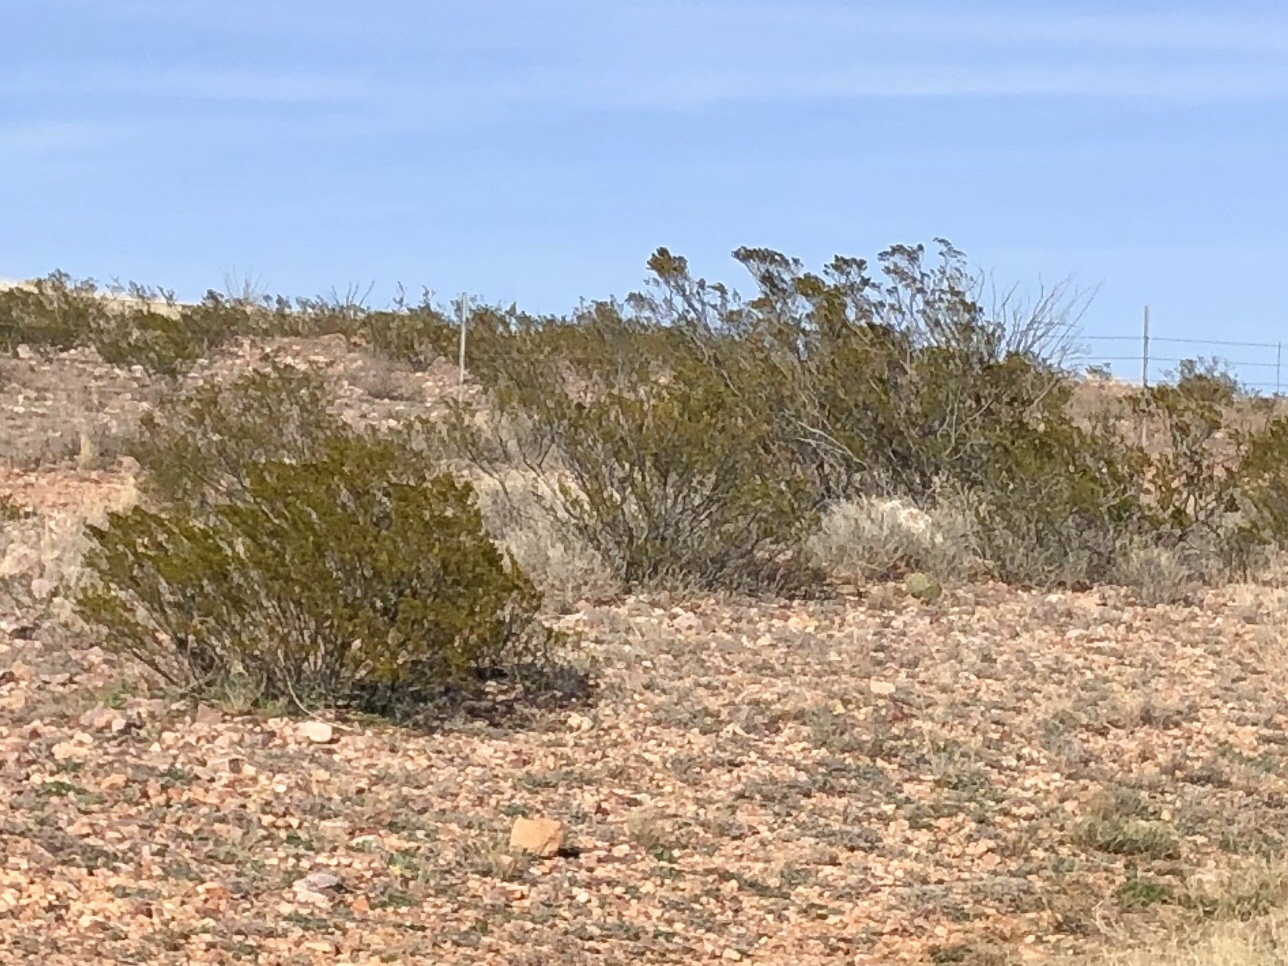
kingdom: Plantae
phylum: Tracheophyta
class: Magnoliopsida
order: Zygophyllales
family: Zygophyllaceae
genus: Larrea
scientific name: Larrea tridentata
